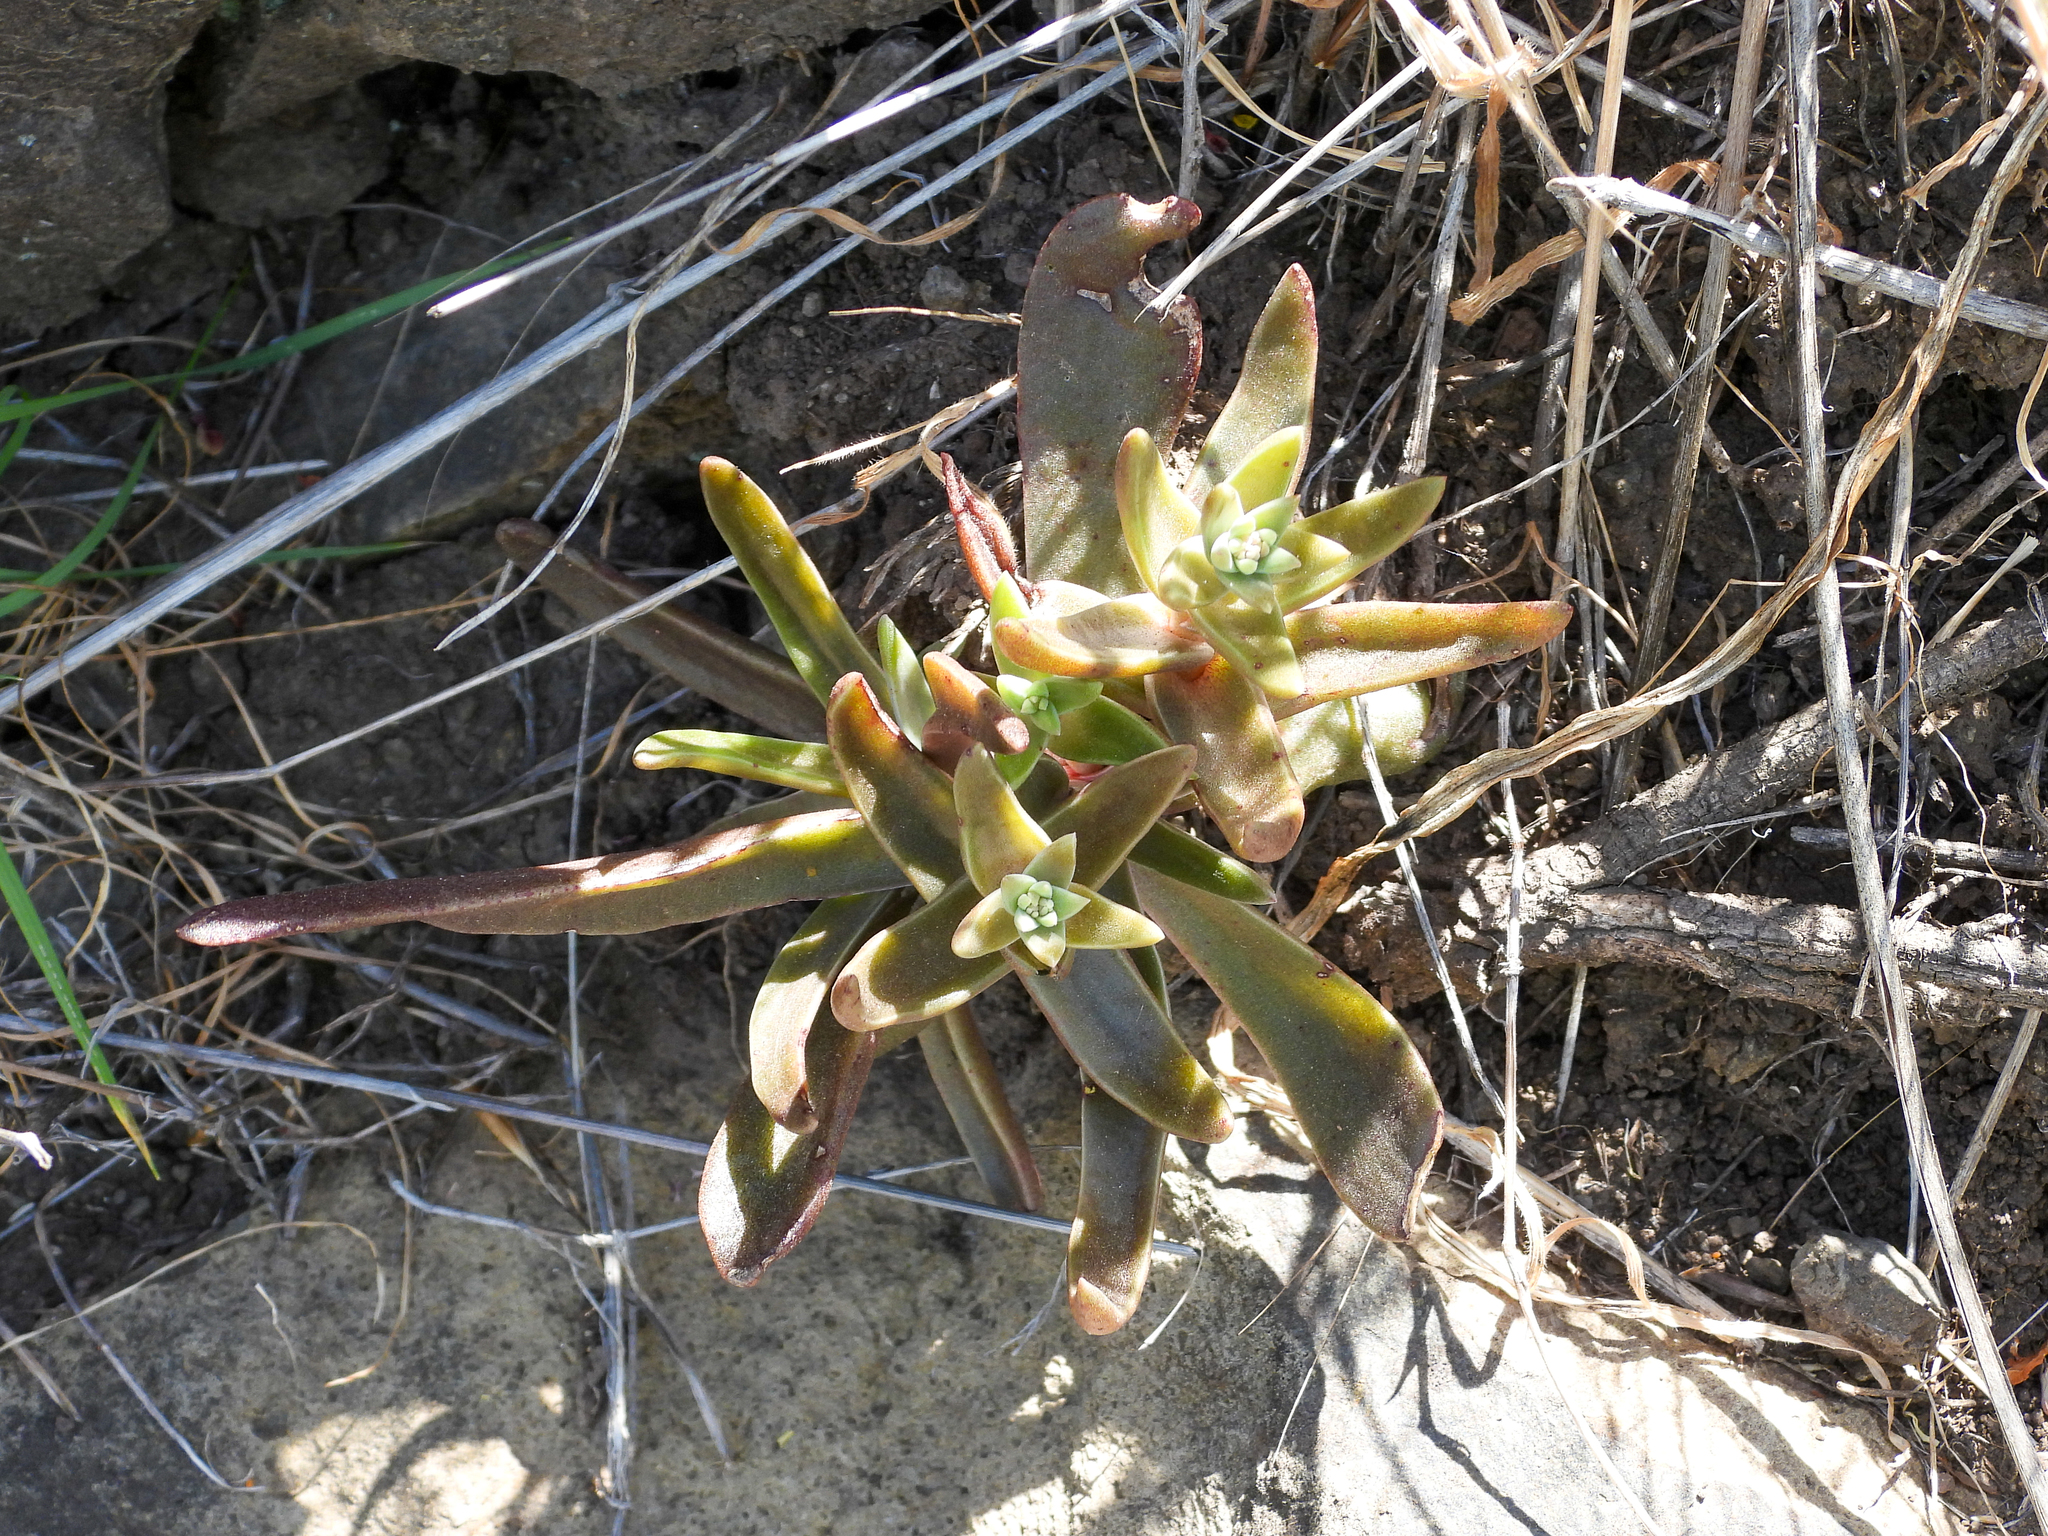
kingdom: Plantae
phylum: Tracheophyta
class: Magnoliopsida
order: Saxifragales
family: Crassulaceae
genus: Dudleya
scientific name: Dudleya parva
